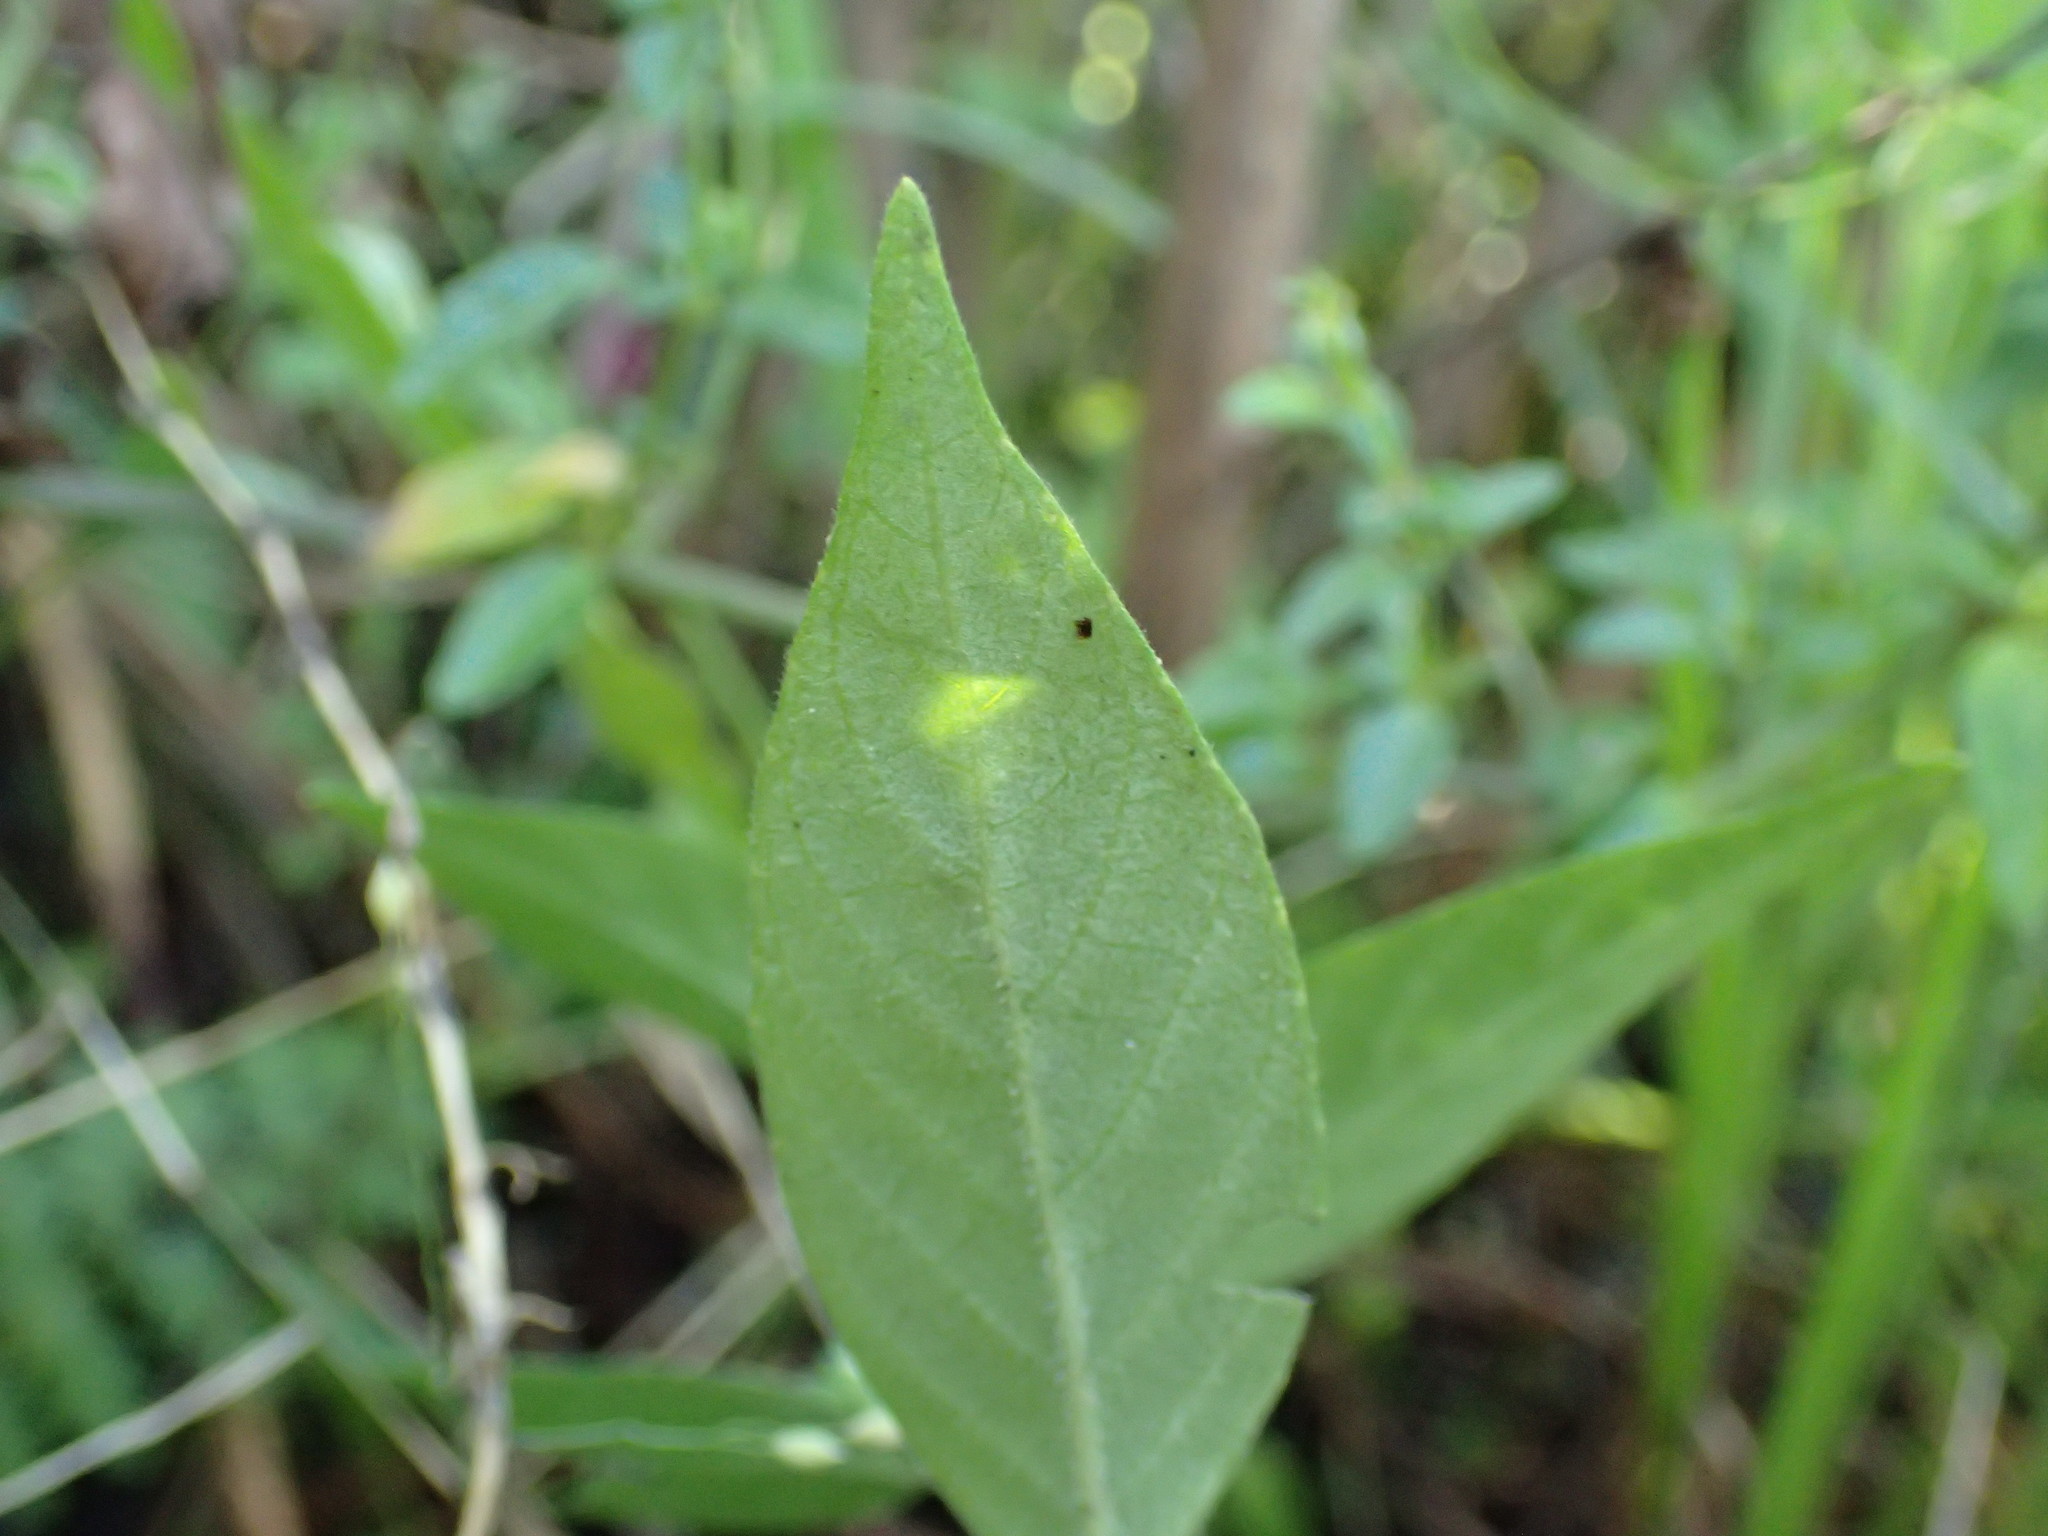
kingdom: Plantae
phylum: Tracheophyta
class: Magnoliopsida
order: Lamiales
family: Acanthaceae
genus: Hypoestes
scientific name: Hypoestes forskaolii
